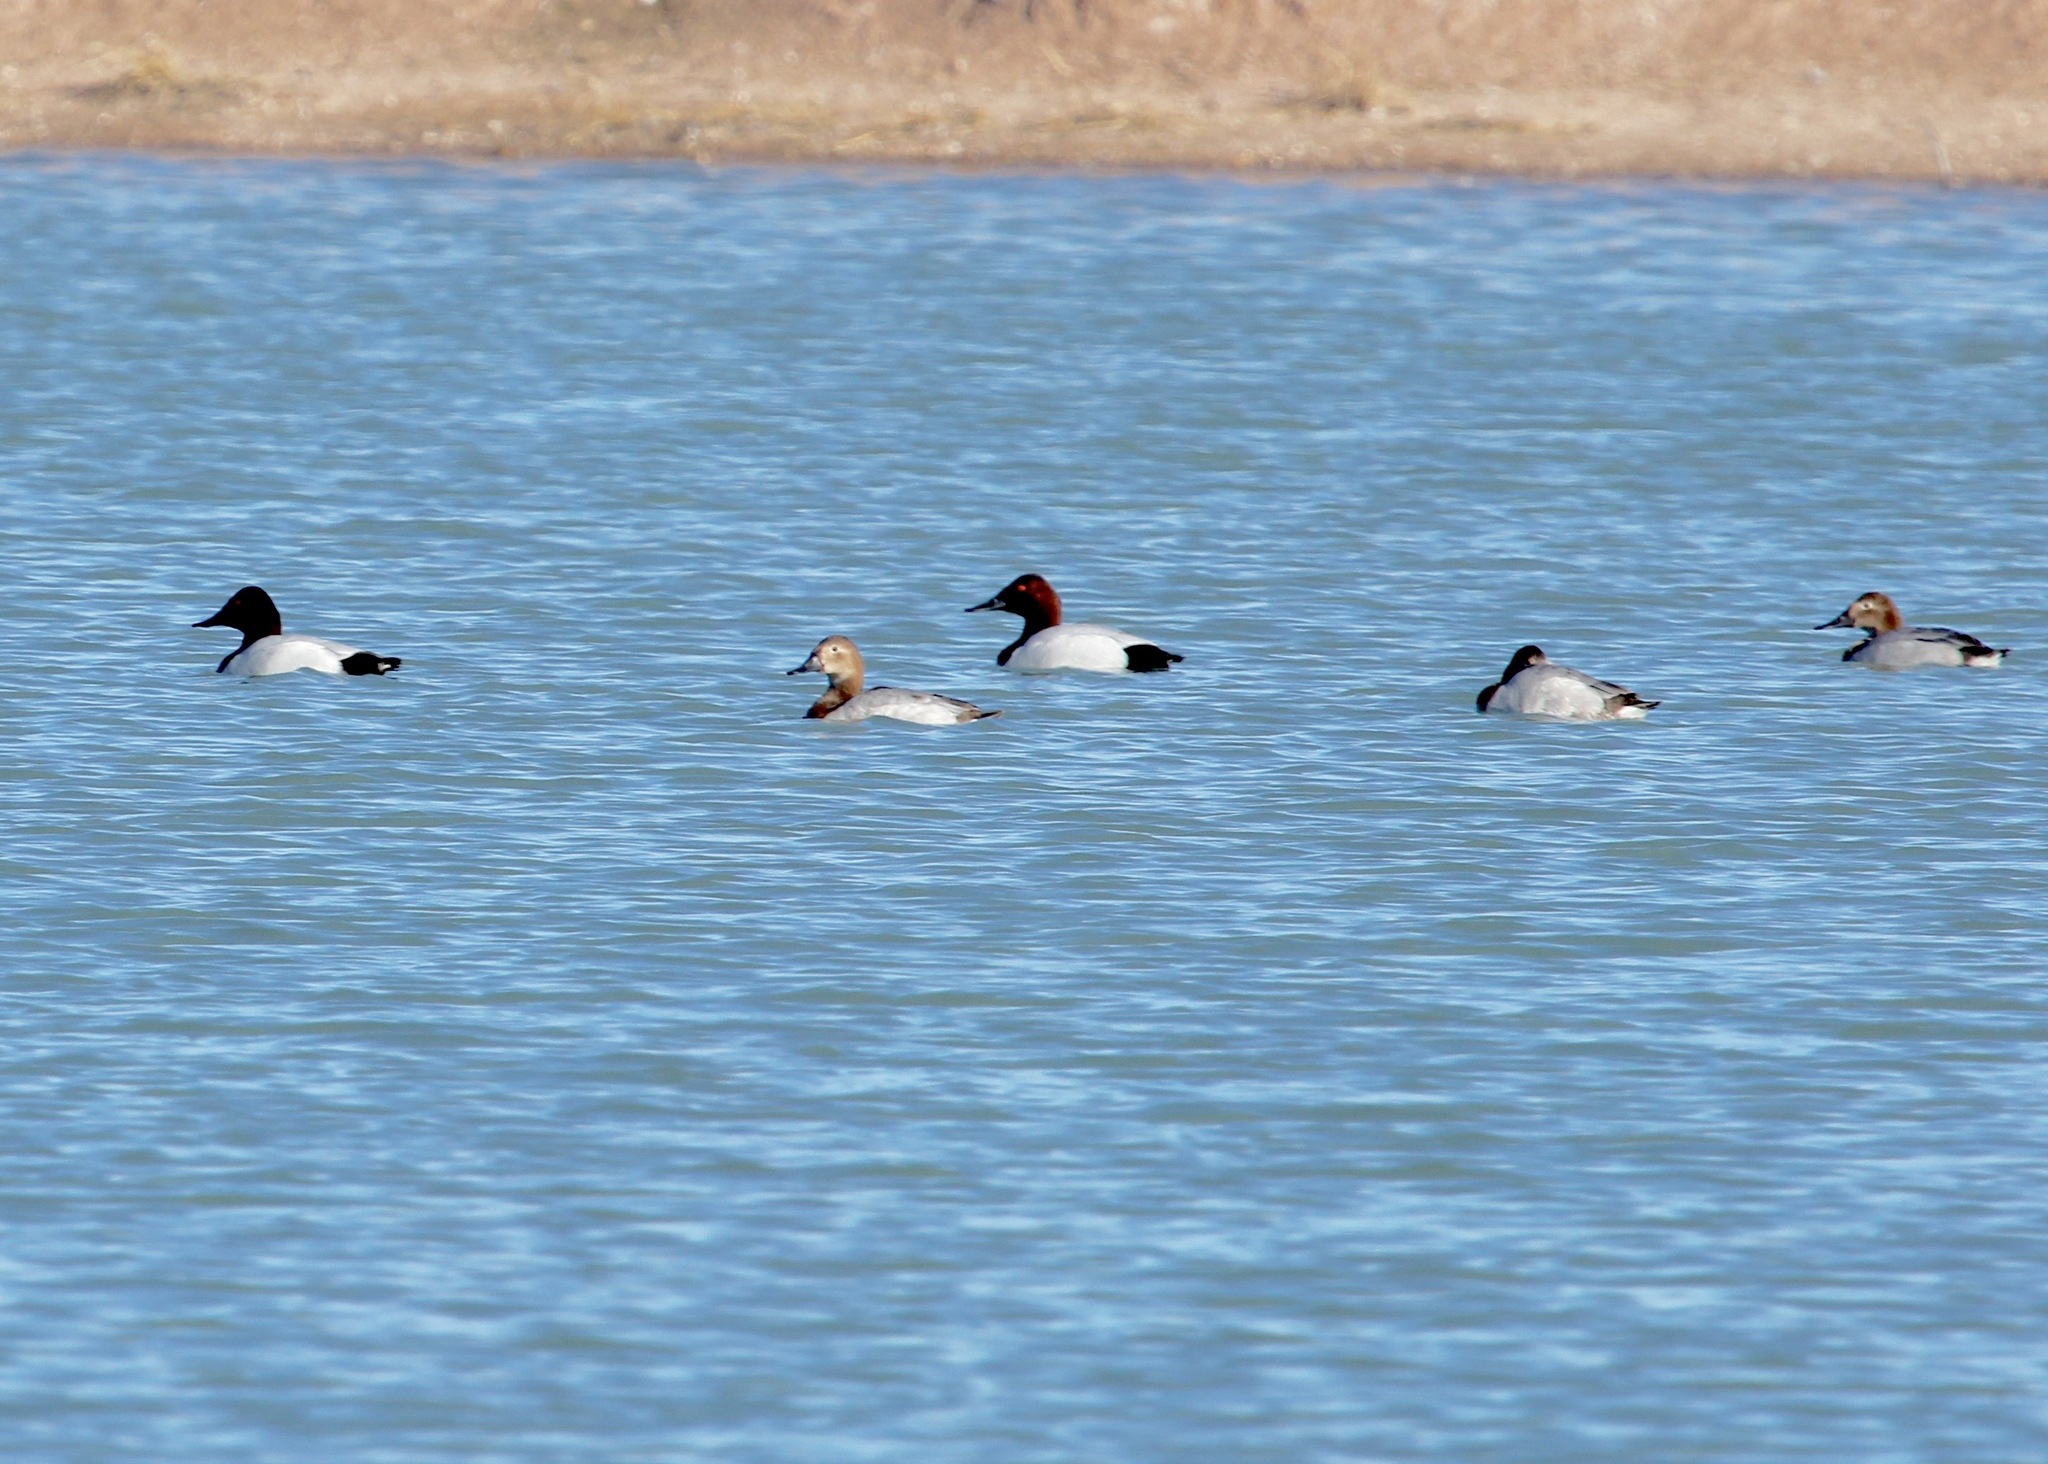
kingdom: Animalia
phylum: Chordata
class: Aves
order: Anseriformes
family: Anatidae
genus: Aythya
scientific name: Aythya valisineria
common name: Canvasback
